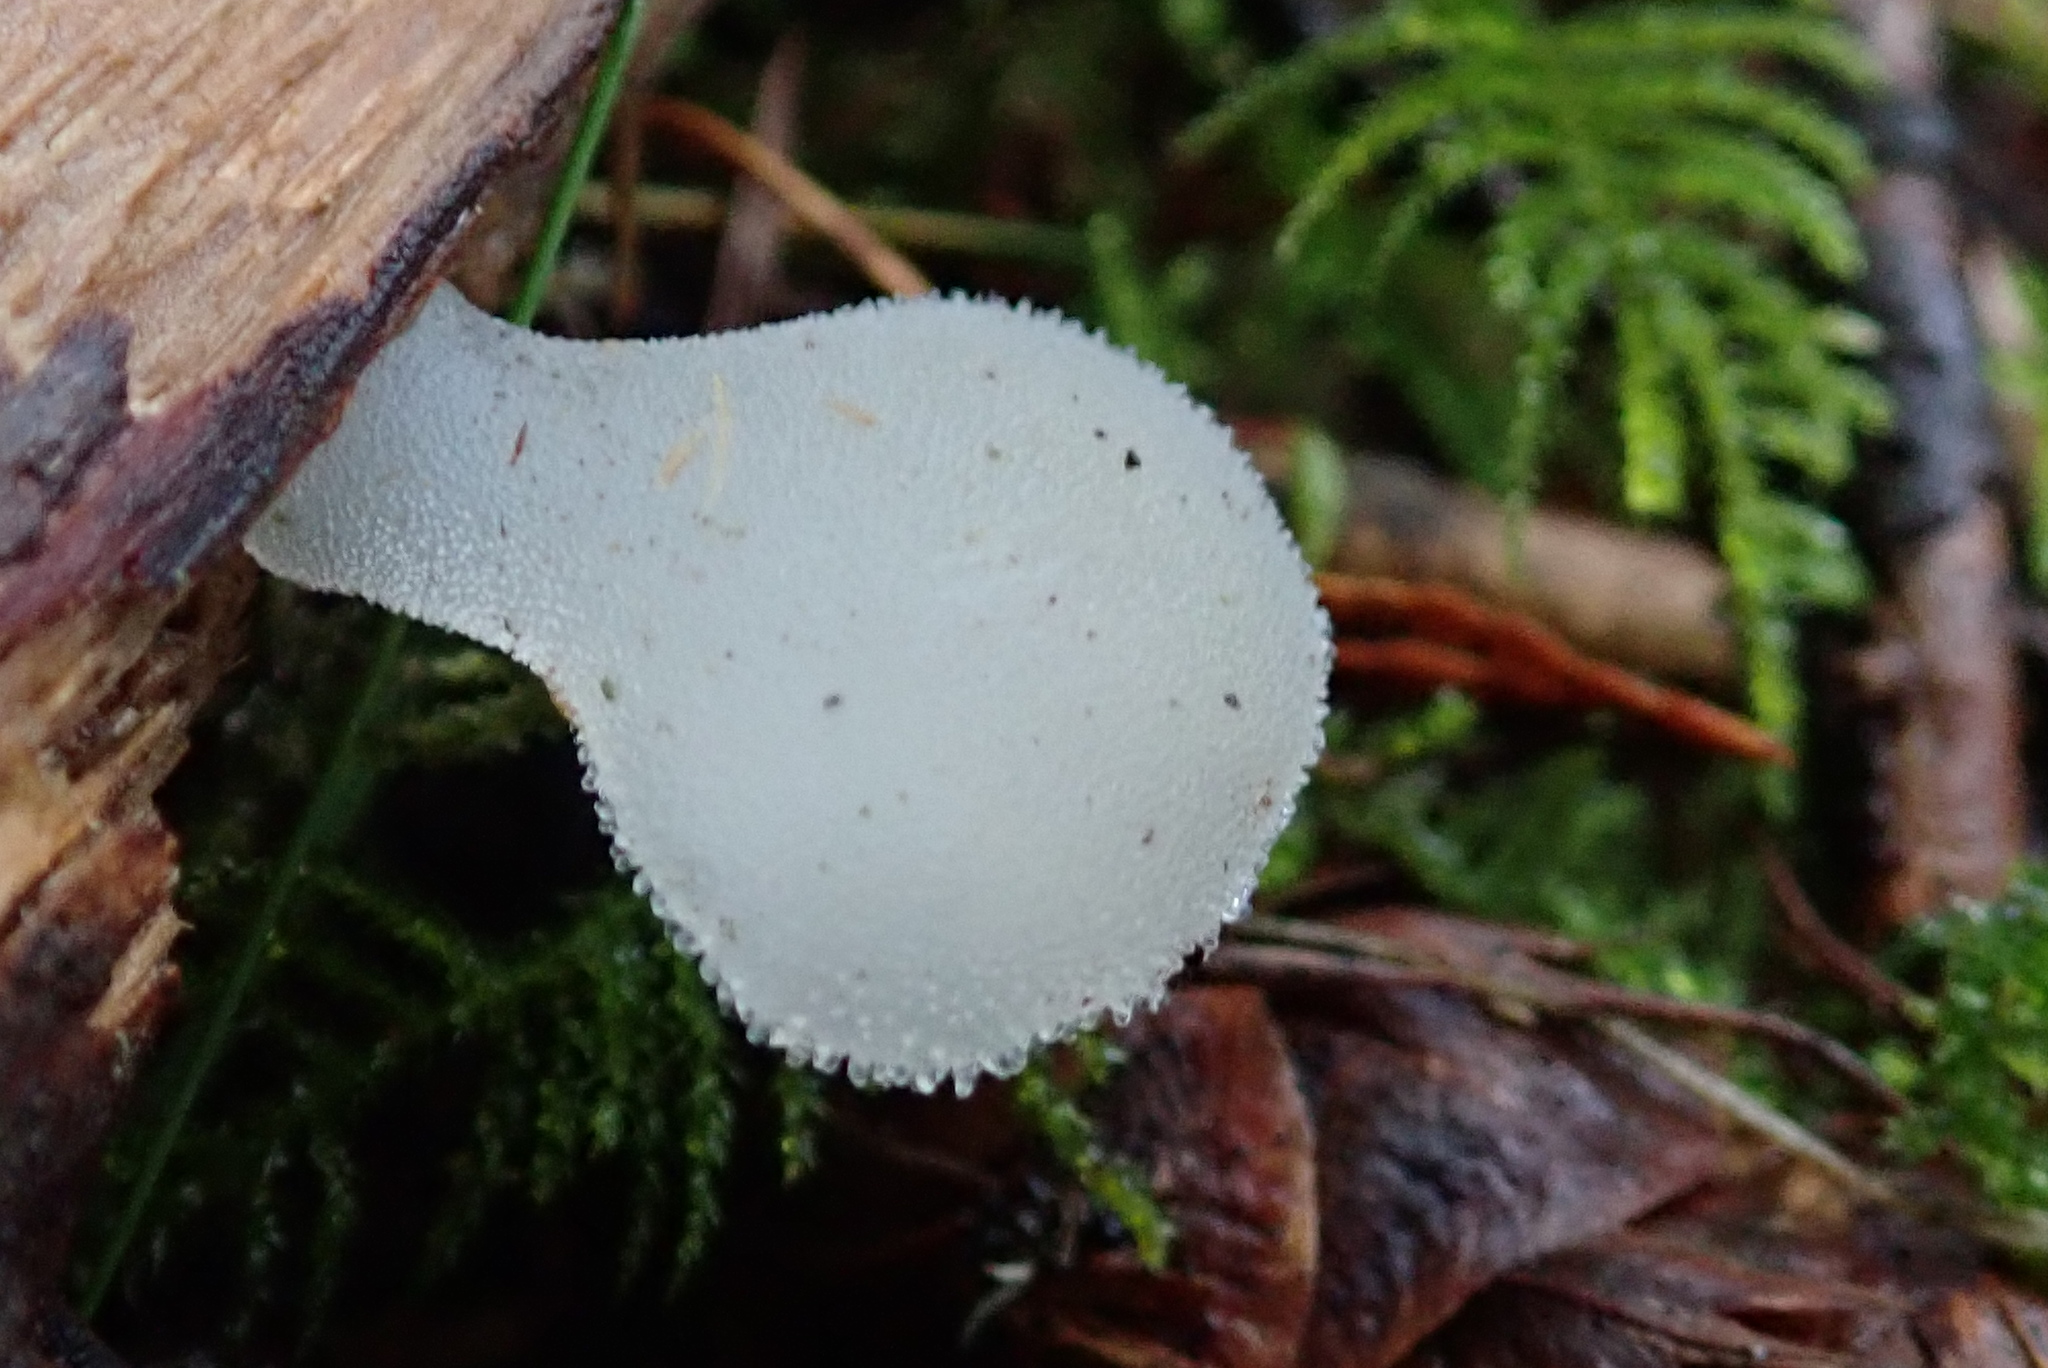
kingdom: Fungi
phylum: Basidiomycota
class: Agaricomycetes
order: Auriculariales
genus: Pseudohydnum
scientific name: Pseudohydnum gelatinosum
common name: Jelly tongue
